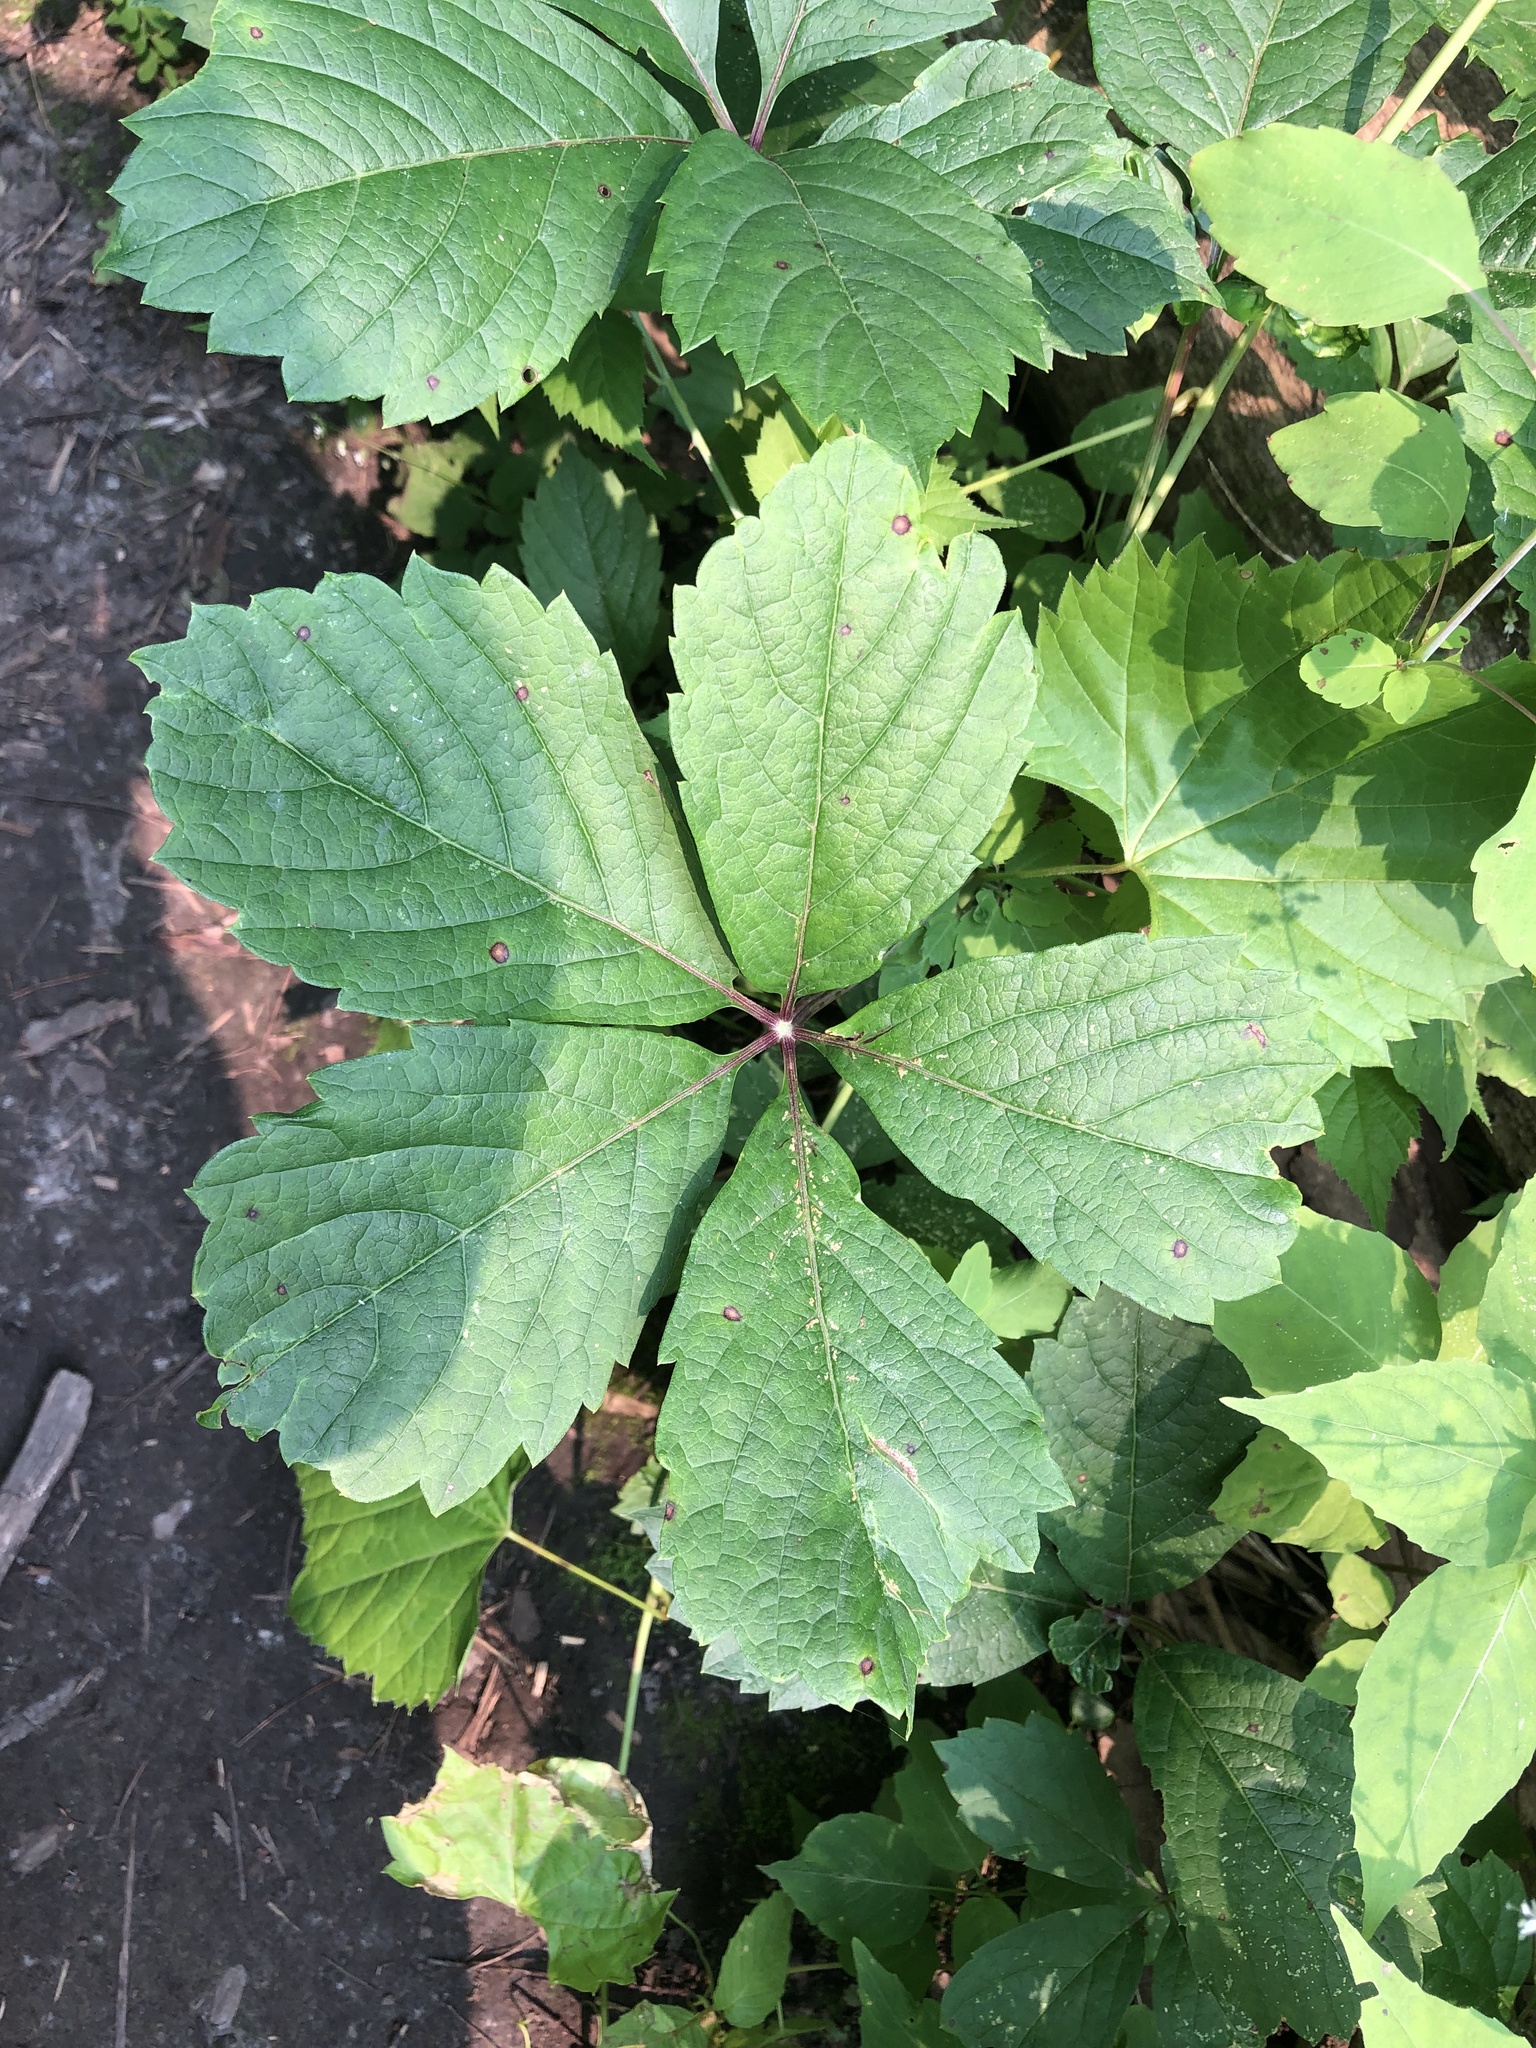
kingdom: Plantae
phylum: Tracheophyta
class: Magnoliopsida
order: Vitales
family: Vitaceae
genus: Parthenocissus
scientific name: Parthenocissus inserta
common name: False virginia-creeper
